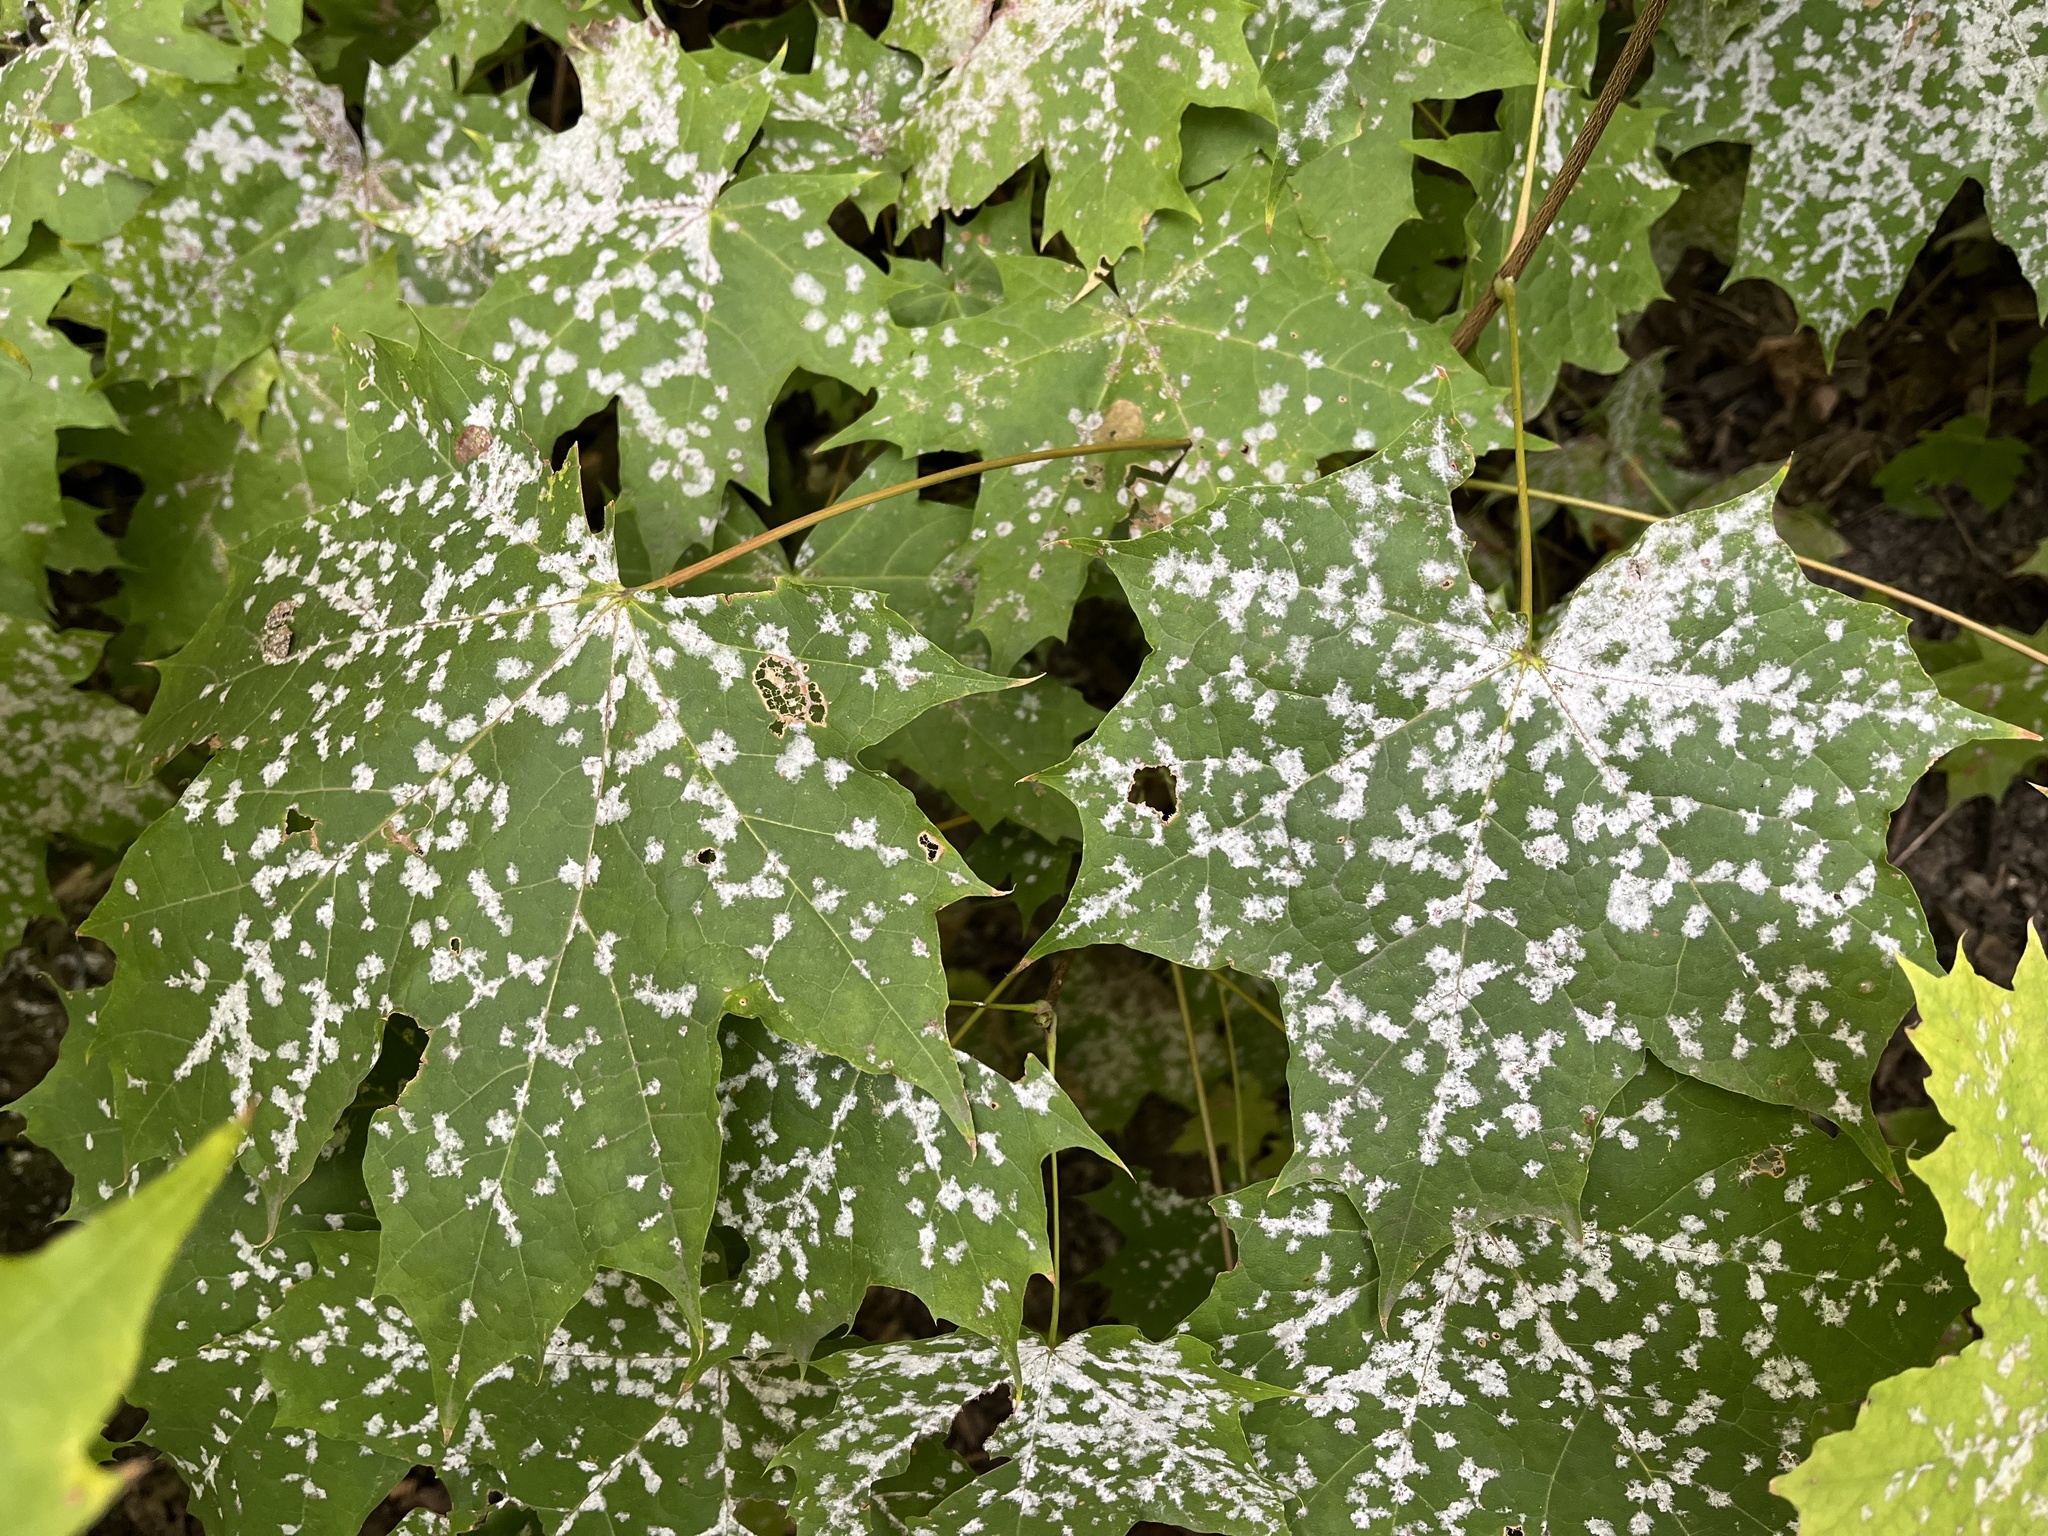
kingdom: Fungi
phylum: Ascomycota
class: Leotiomycetes
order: Helotiales
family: Erysiphaceae
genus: Sawadaea
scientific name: Sawadaea tulasnei
